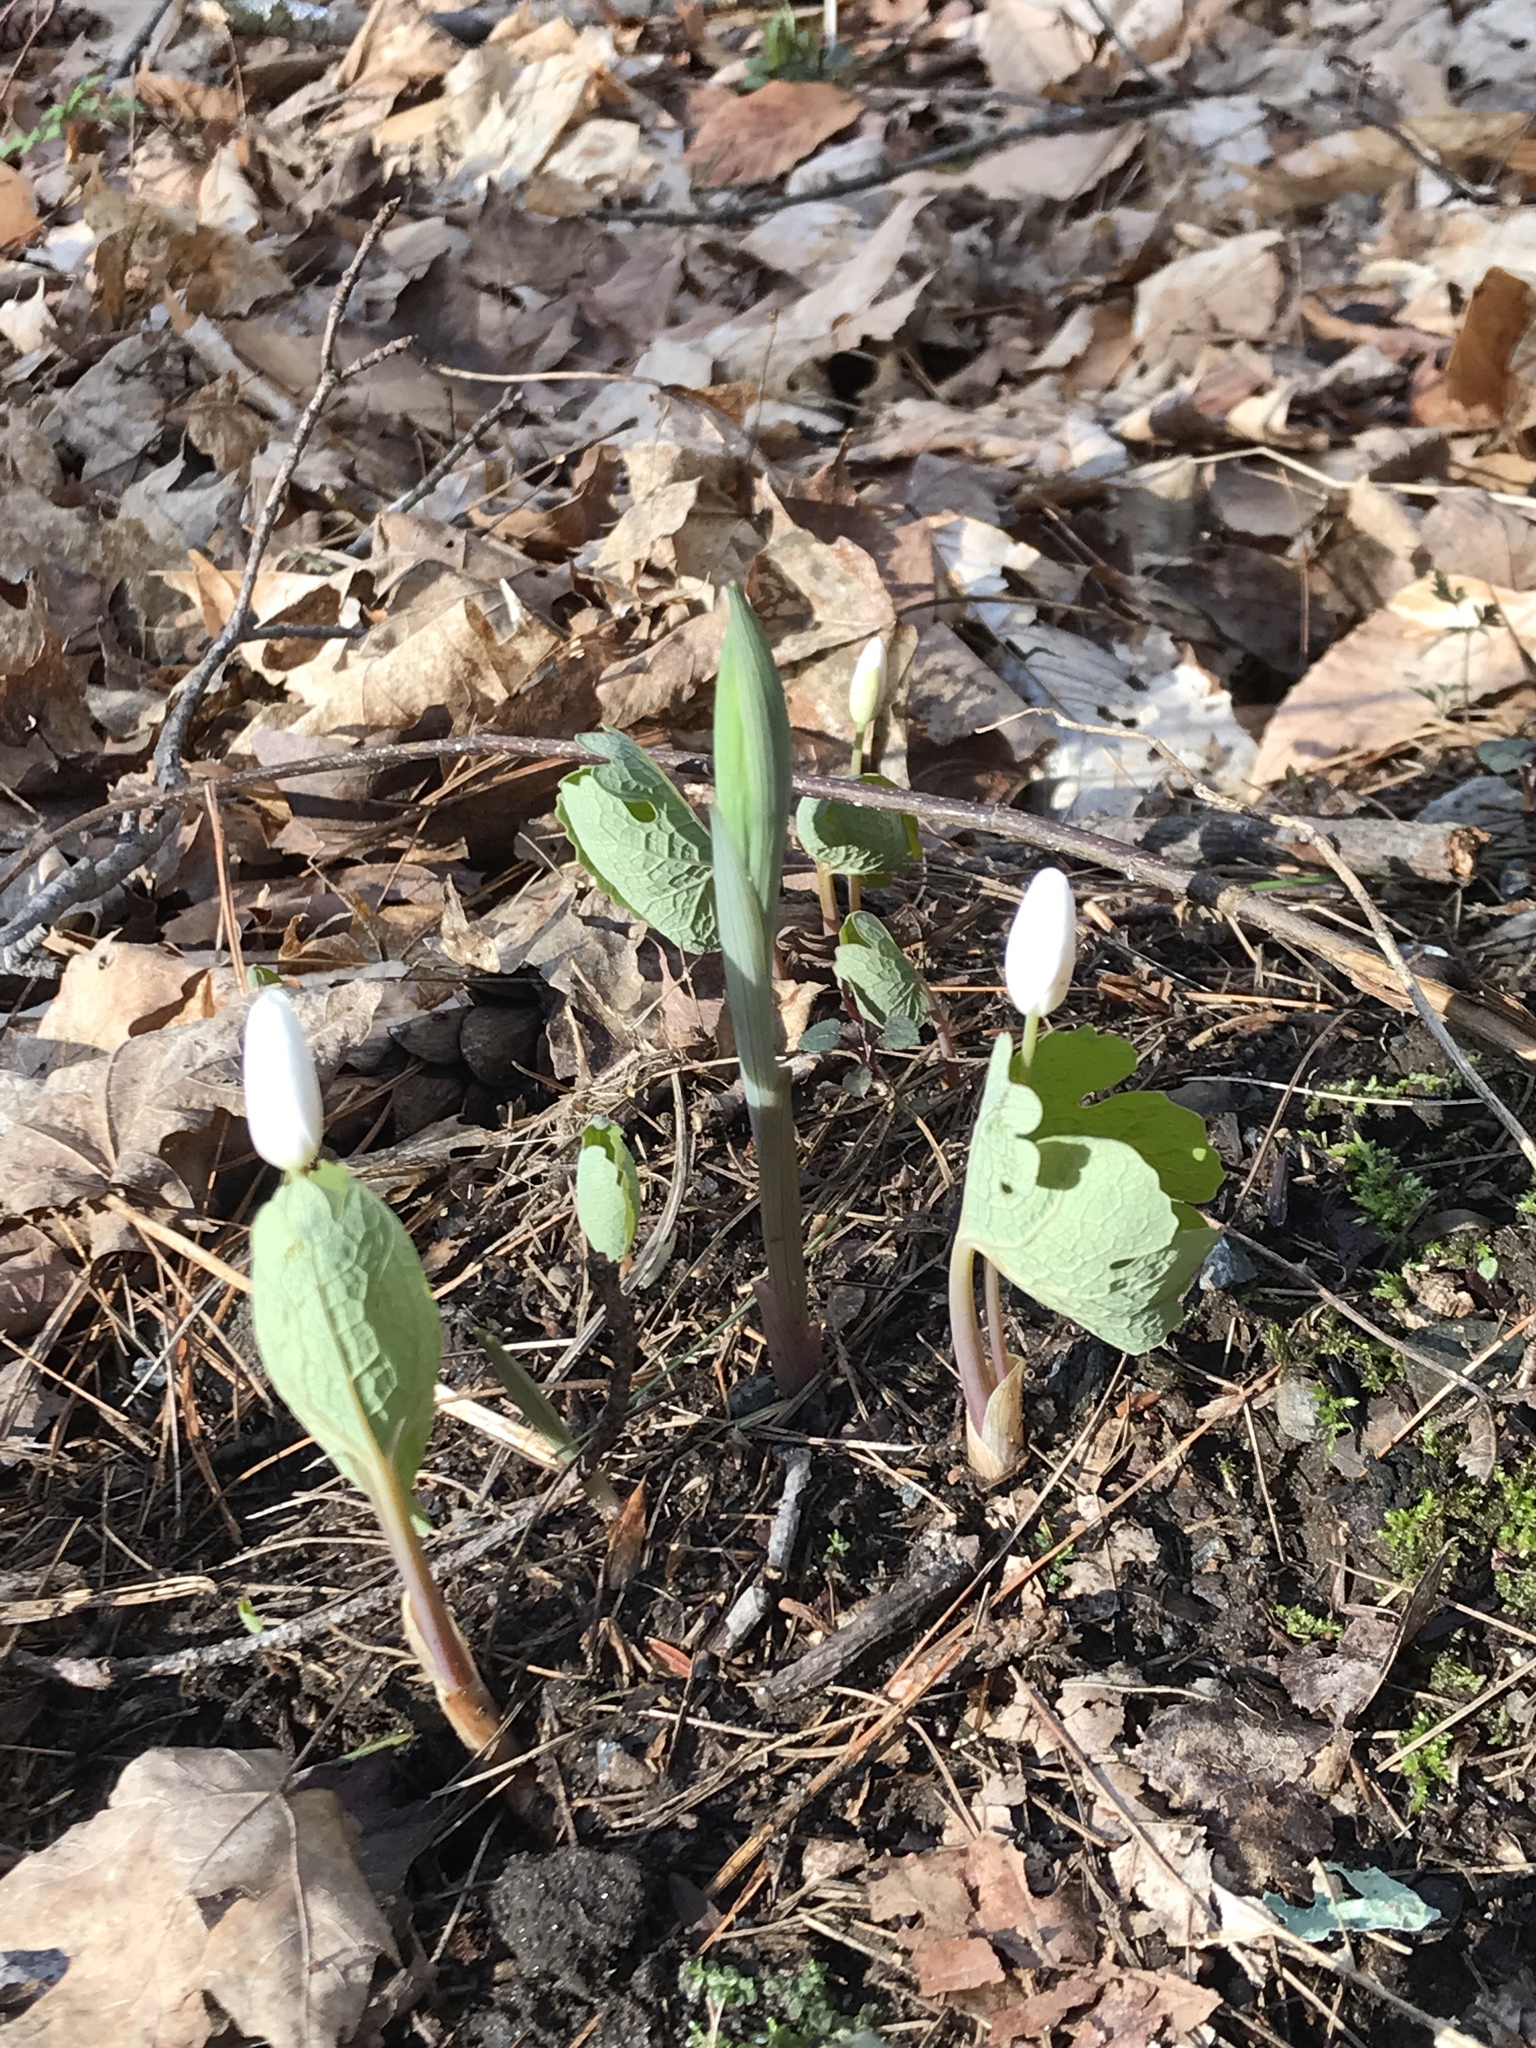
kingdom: Plantae
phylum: Tracheophyta
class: Magnoliopsida
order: Ranunculales
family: Papaveraceae
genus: Sanguinaria
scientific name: Sanguinaria canadensis
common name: Bloodroot
